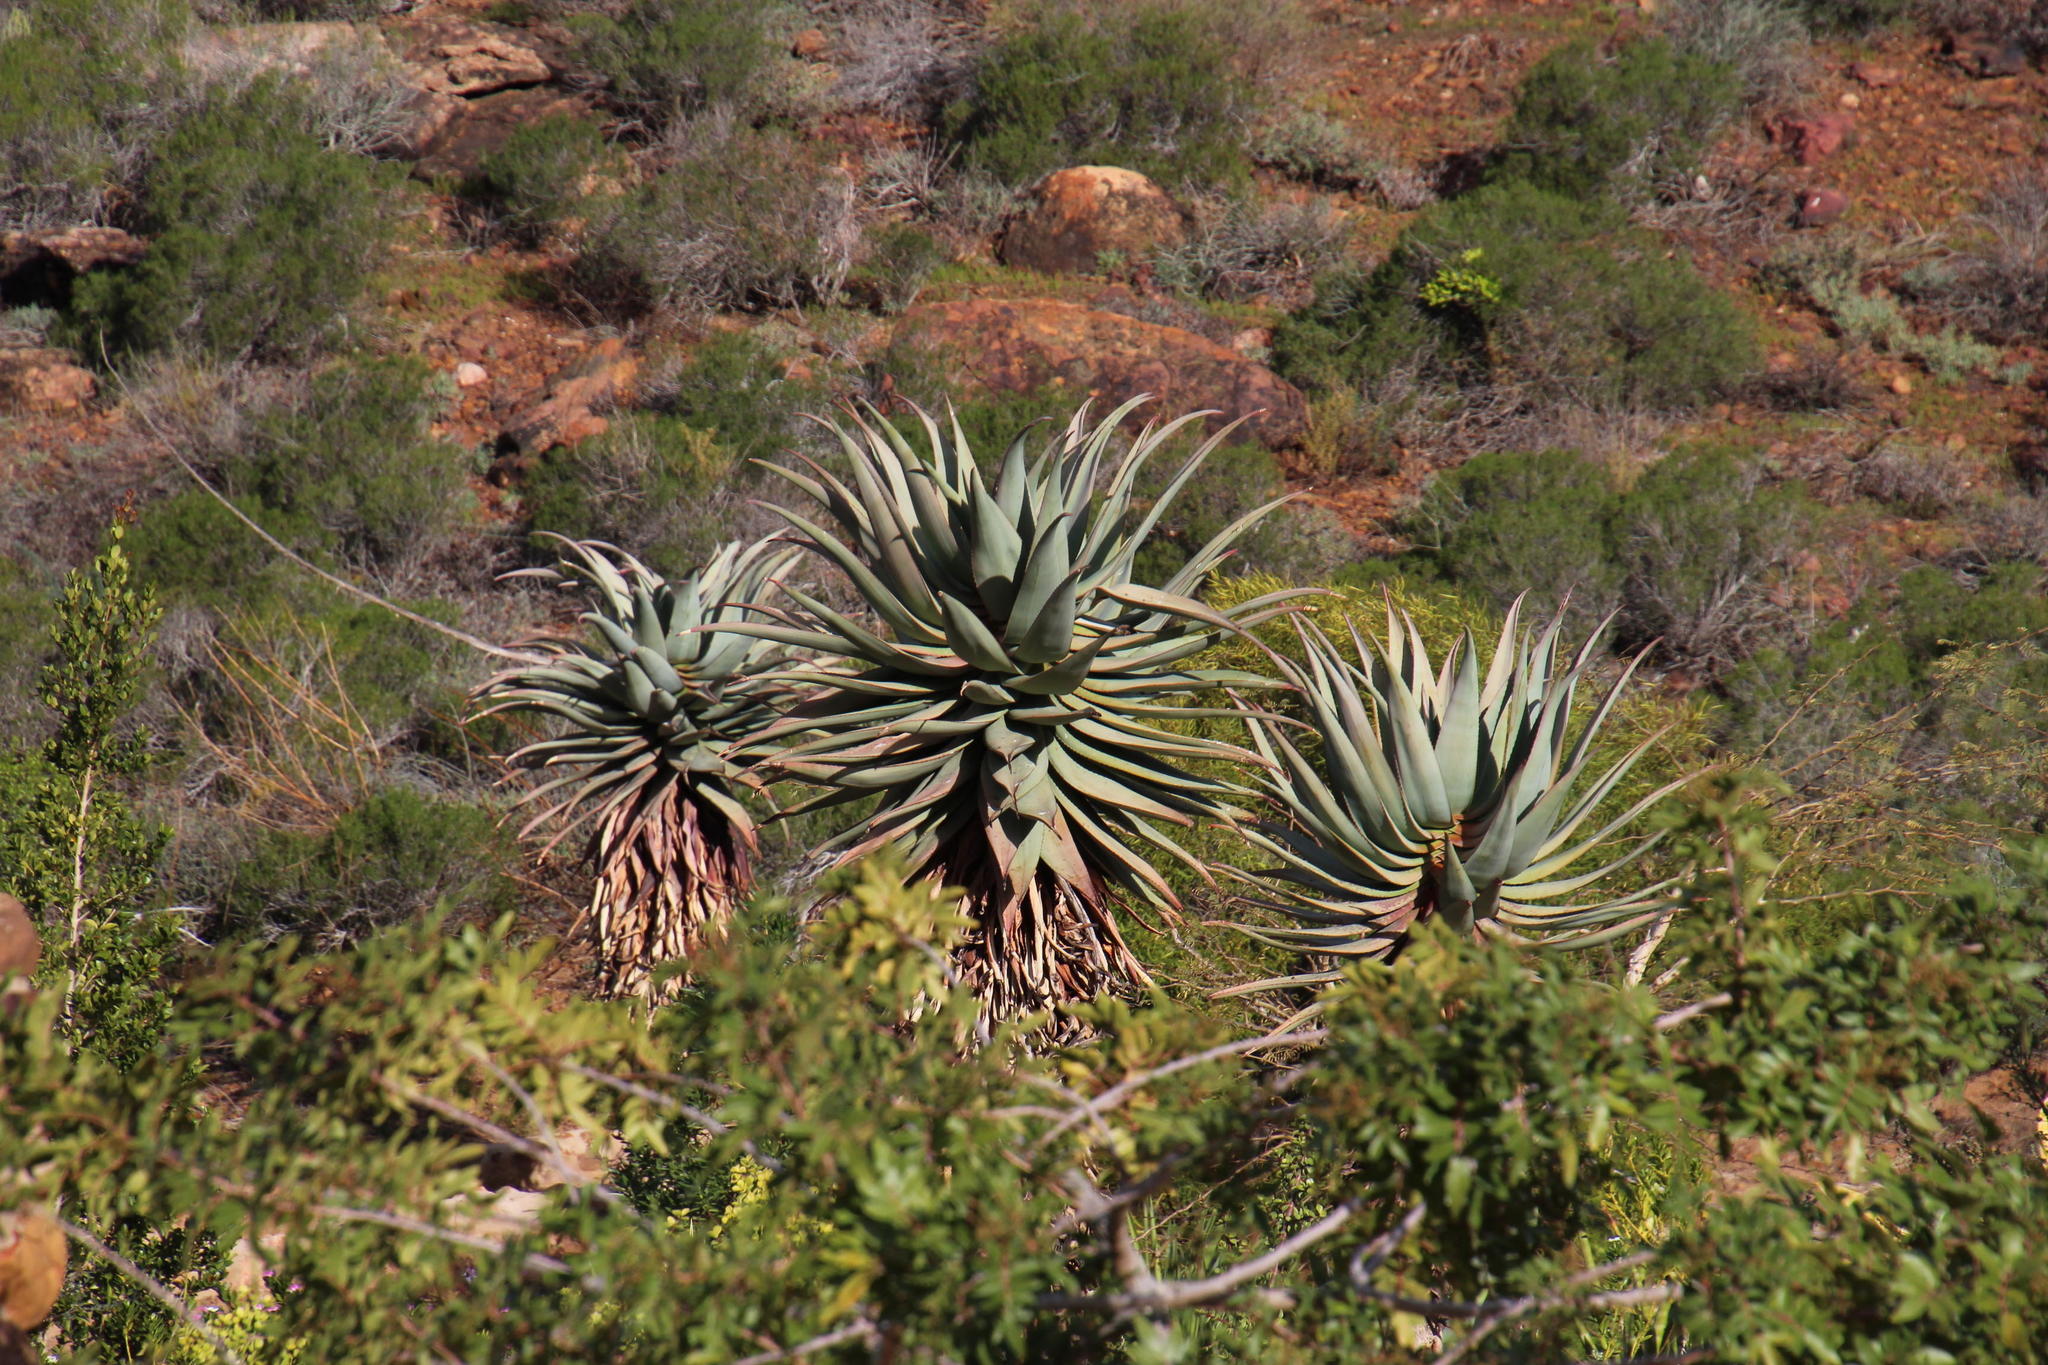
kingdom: Plantae
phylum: Tracheophyta
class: Liliopsida
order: Asparagales
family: Asphodelaceae
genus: Aloe
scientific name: Aloe comosa
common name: Clanwilliam aloe
